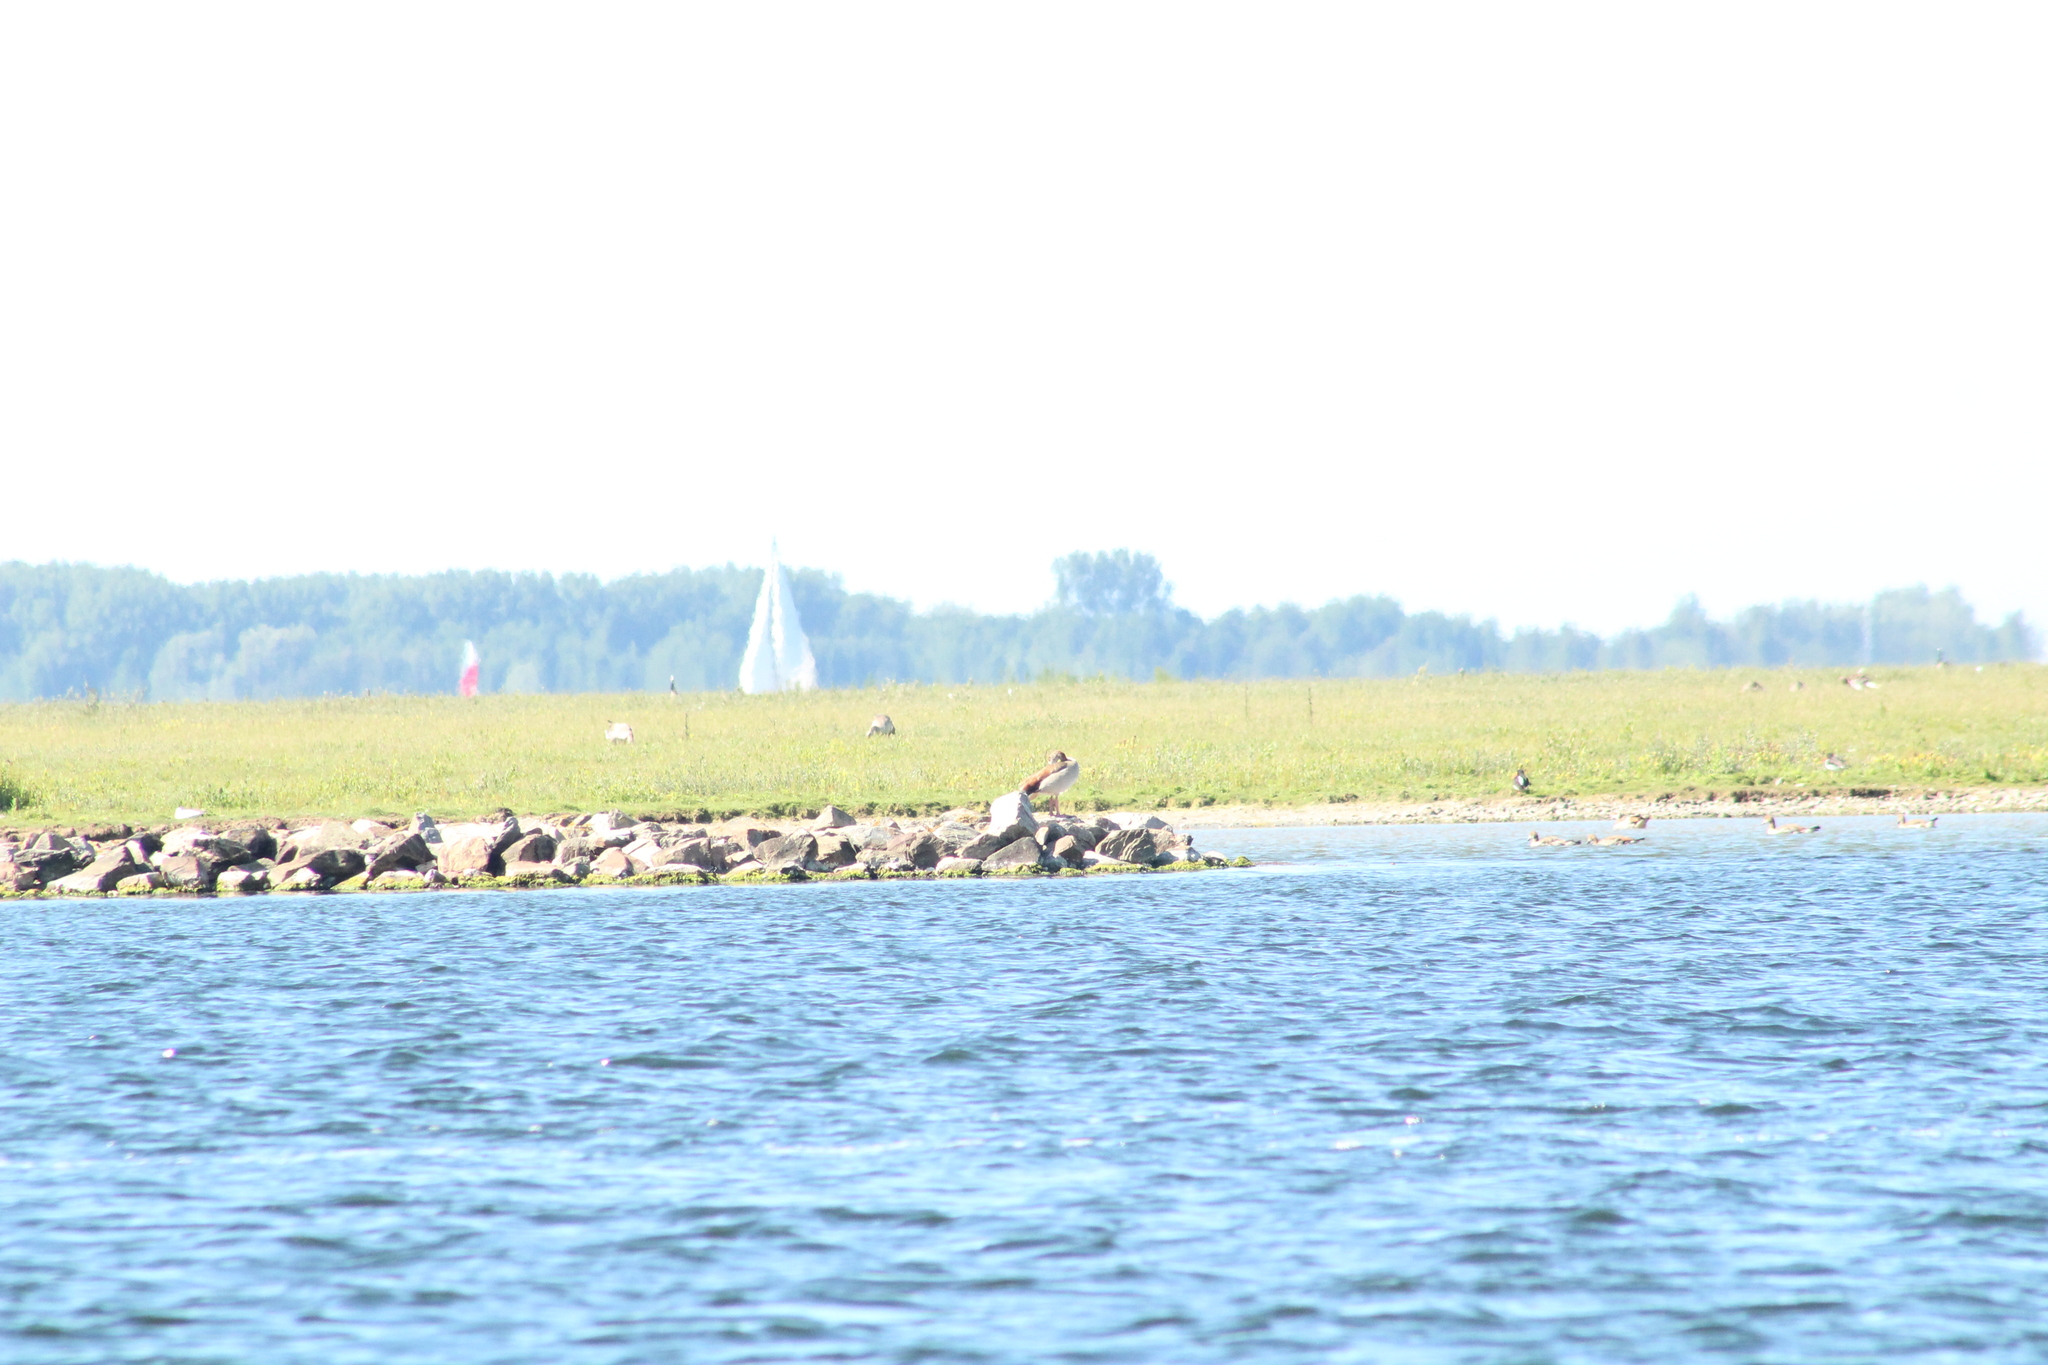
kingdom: Animalia
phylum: Chordata
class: Aves
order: Anseriformes
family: Anatidae
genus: Alopochen
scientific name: Alopochen aegyptiaca
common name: Egyptian goose
